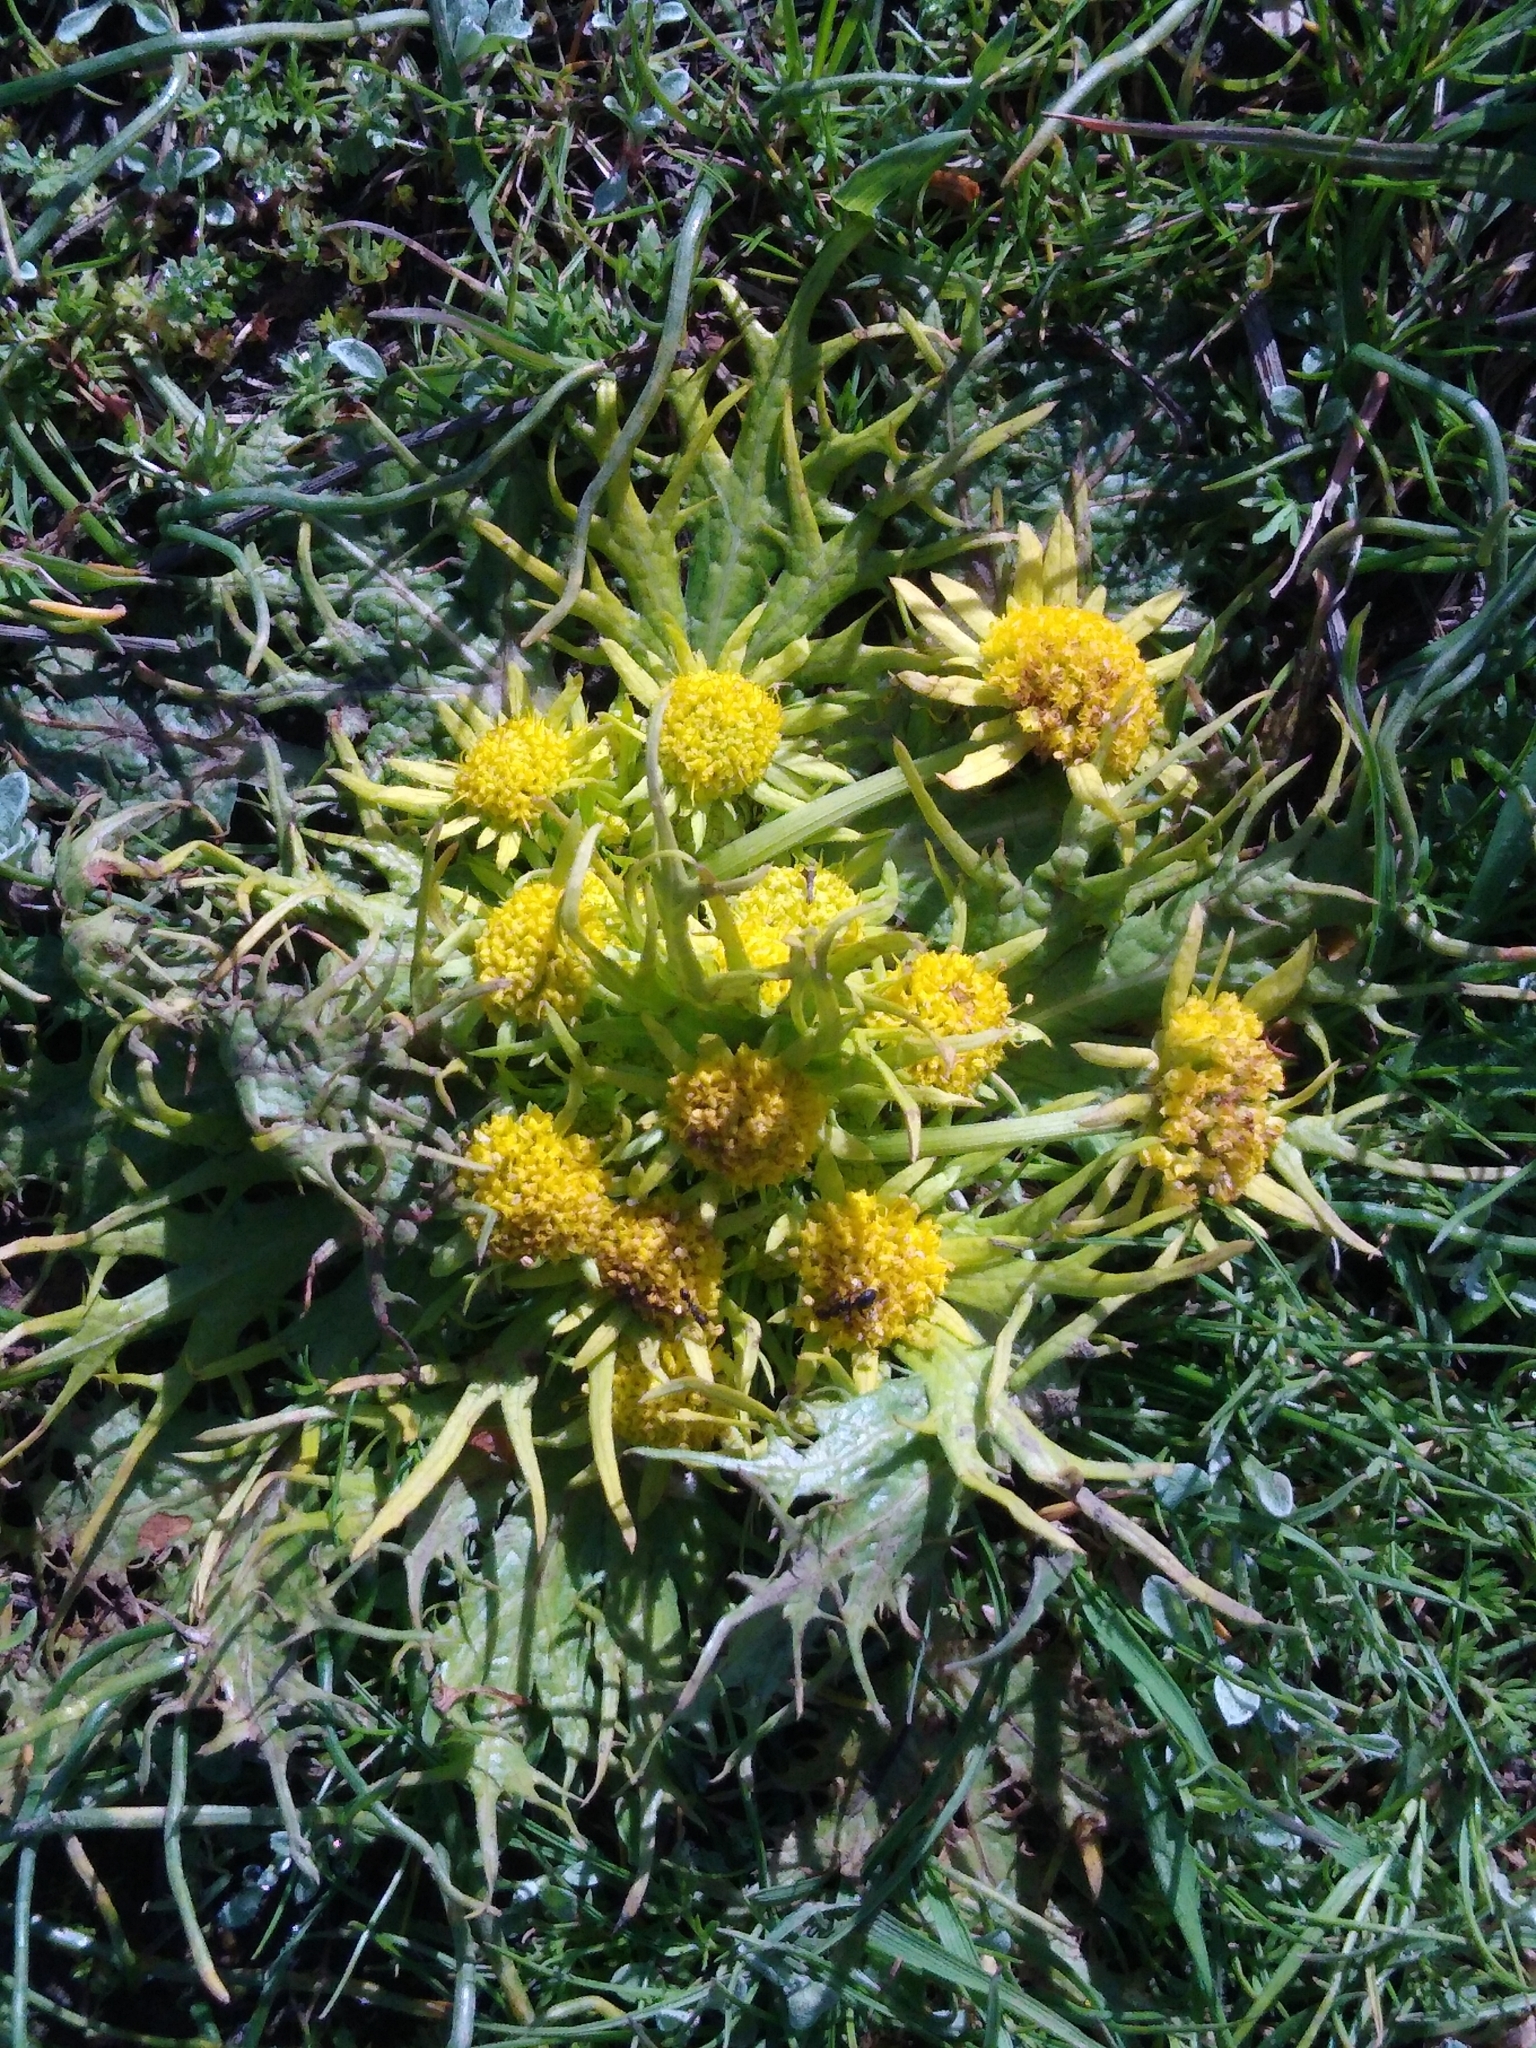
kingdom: Plantae
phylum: Tracheophyta
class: Magnoliopsida
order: Apiales
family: Apiaceae
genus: Sanicula
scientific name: Sanicula arctopoides
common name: Footsteps-of-spring
